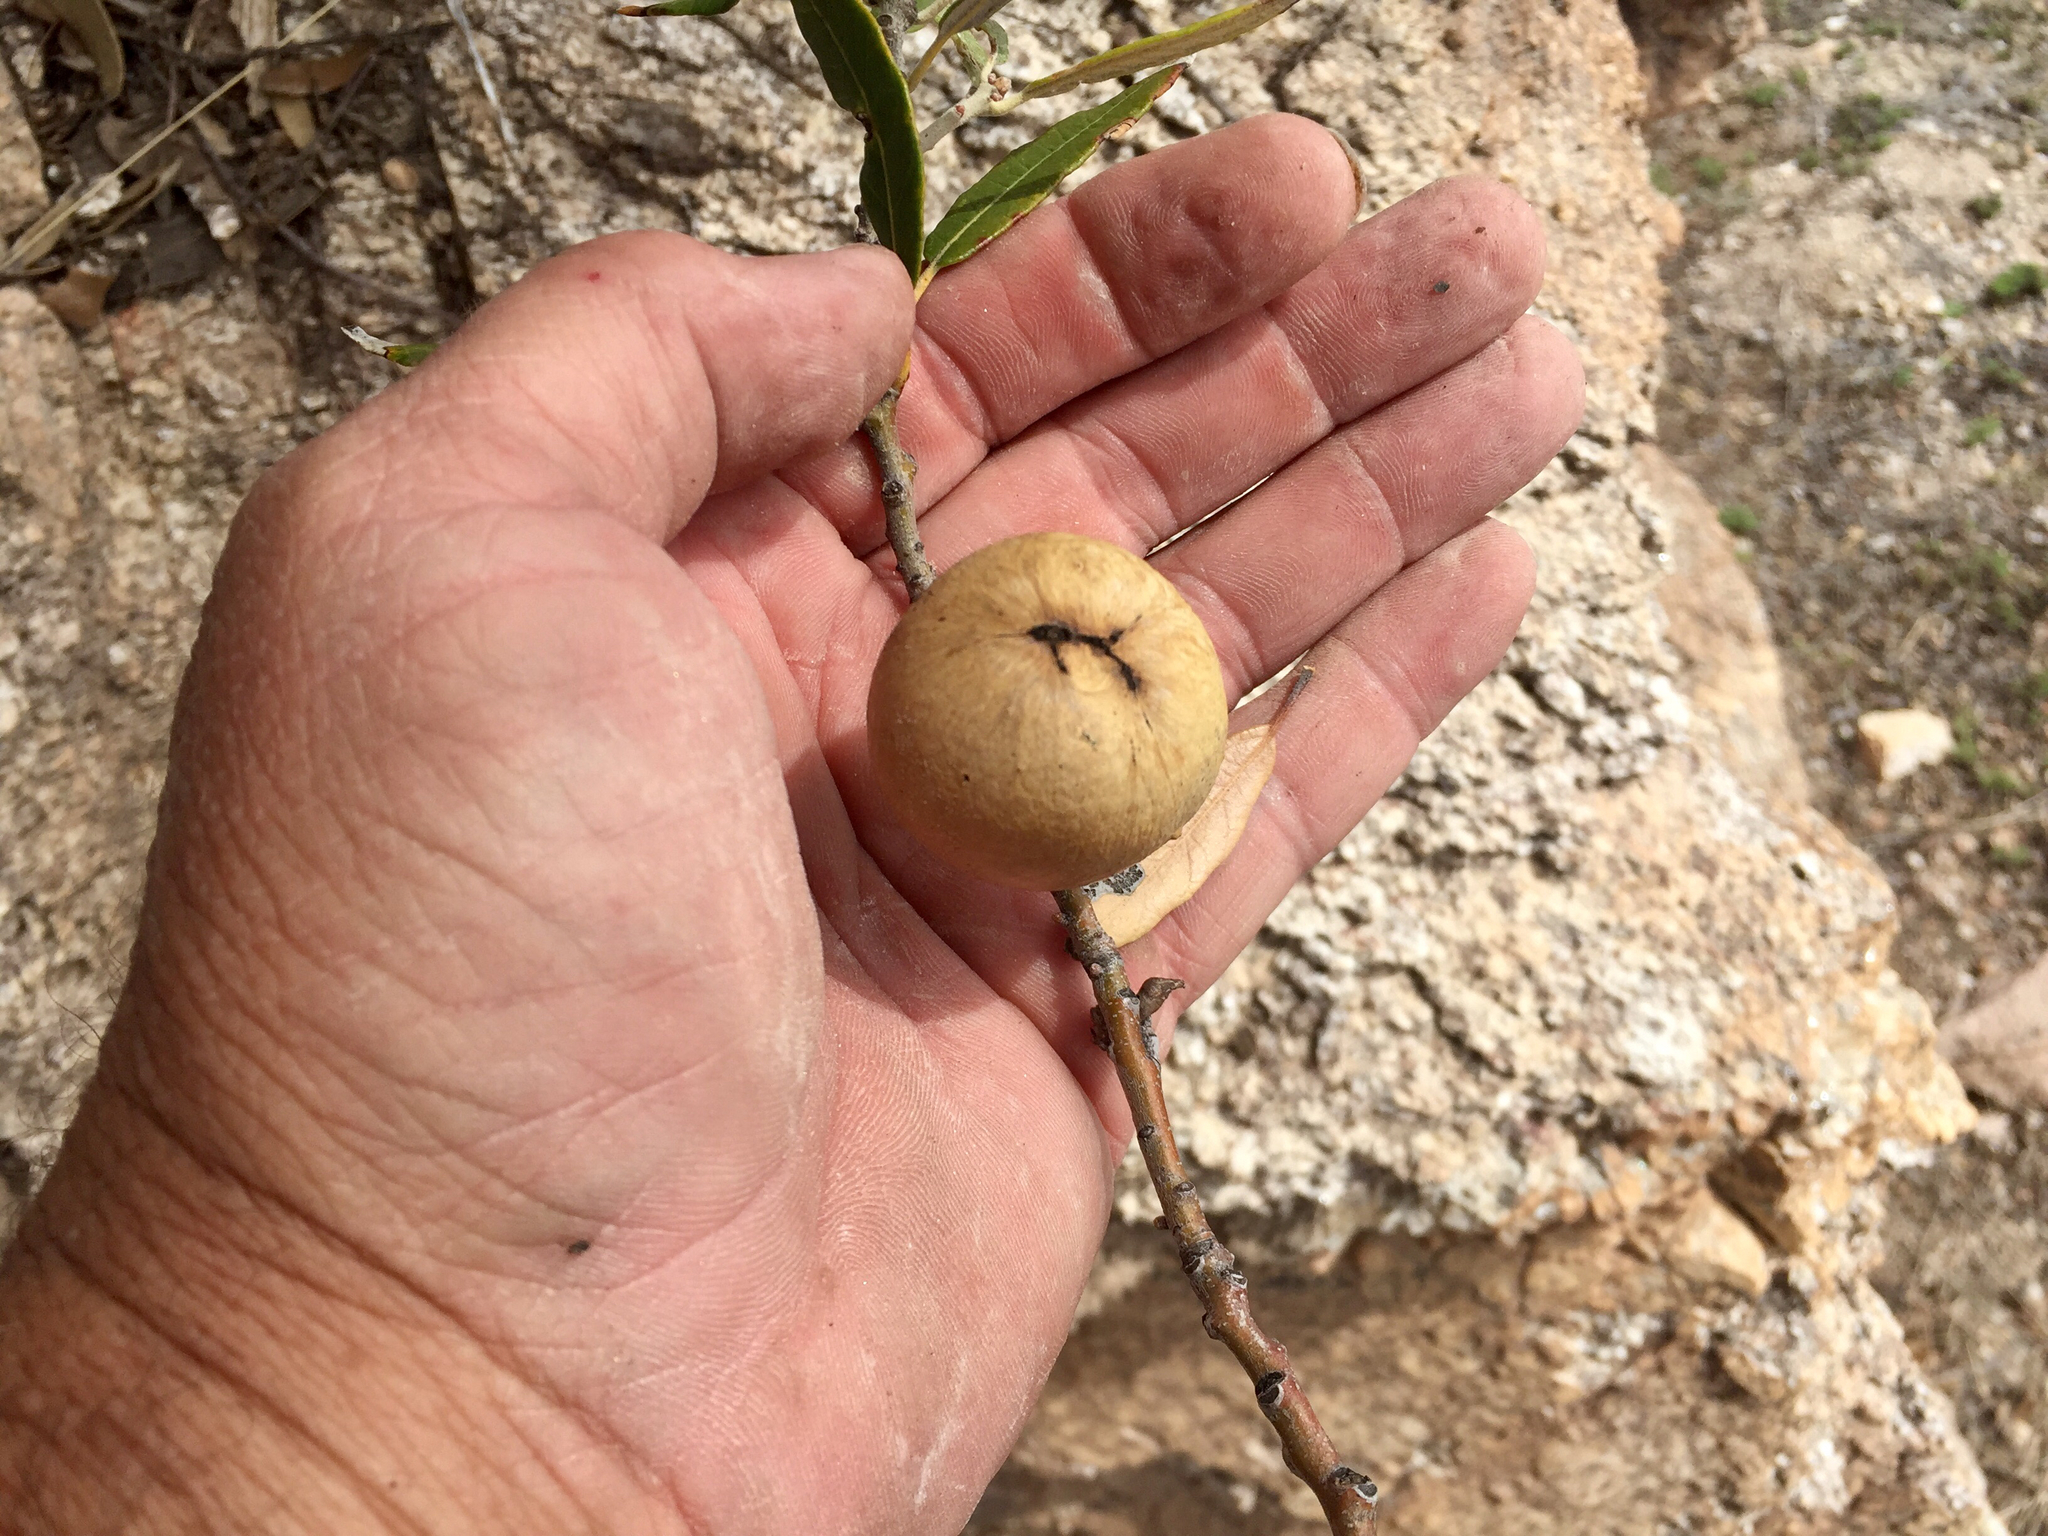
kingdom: Animalia
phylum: Arthropoda
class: Insecta
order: Hymenoptera
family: Cynipidae
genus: Amphibolips
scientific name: Amphibolips
